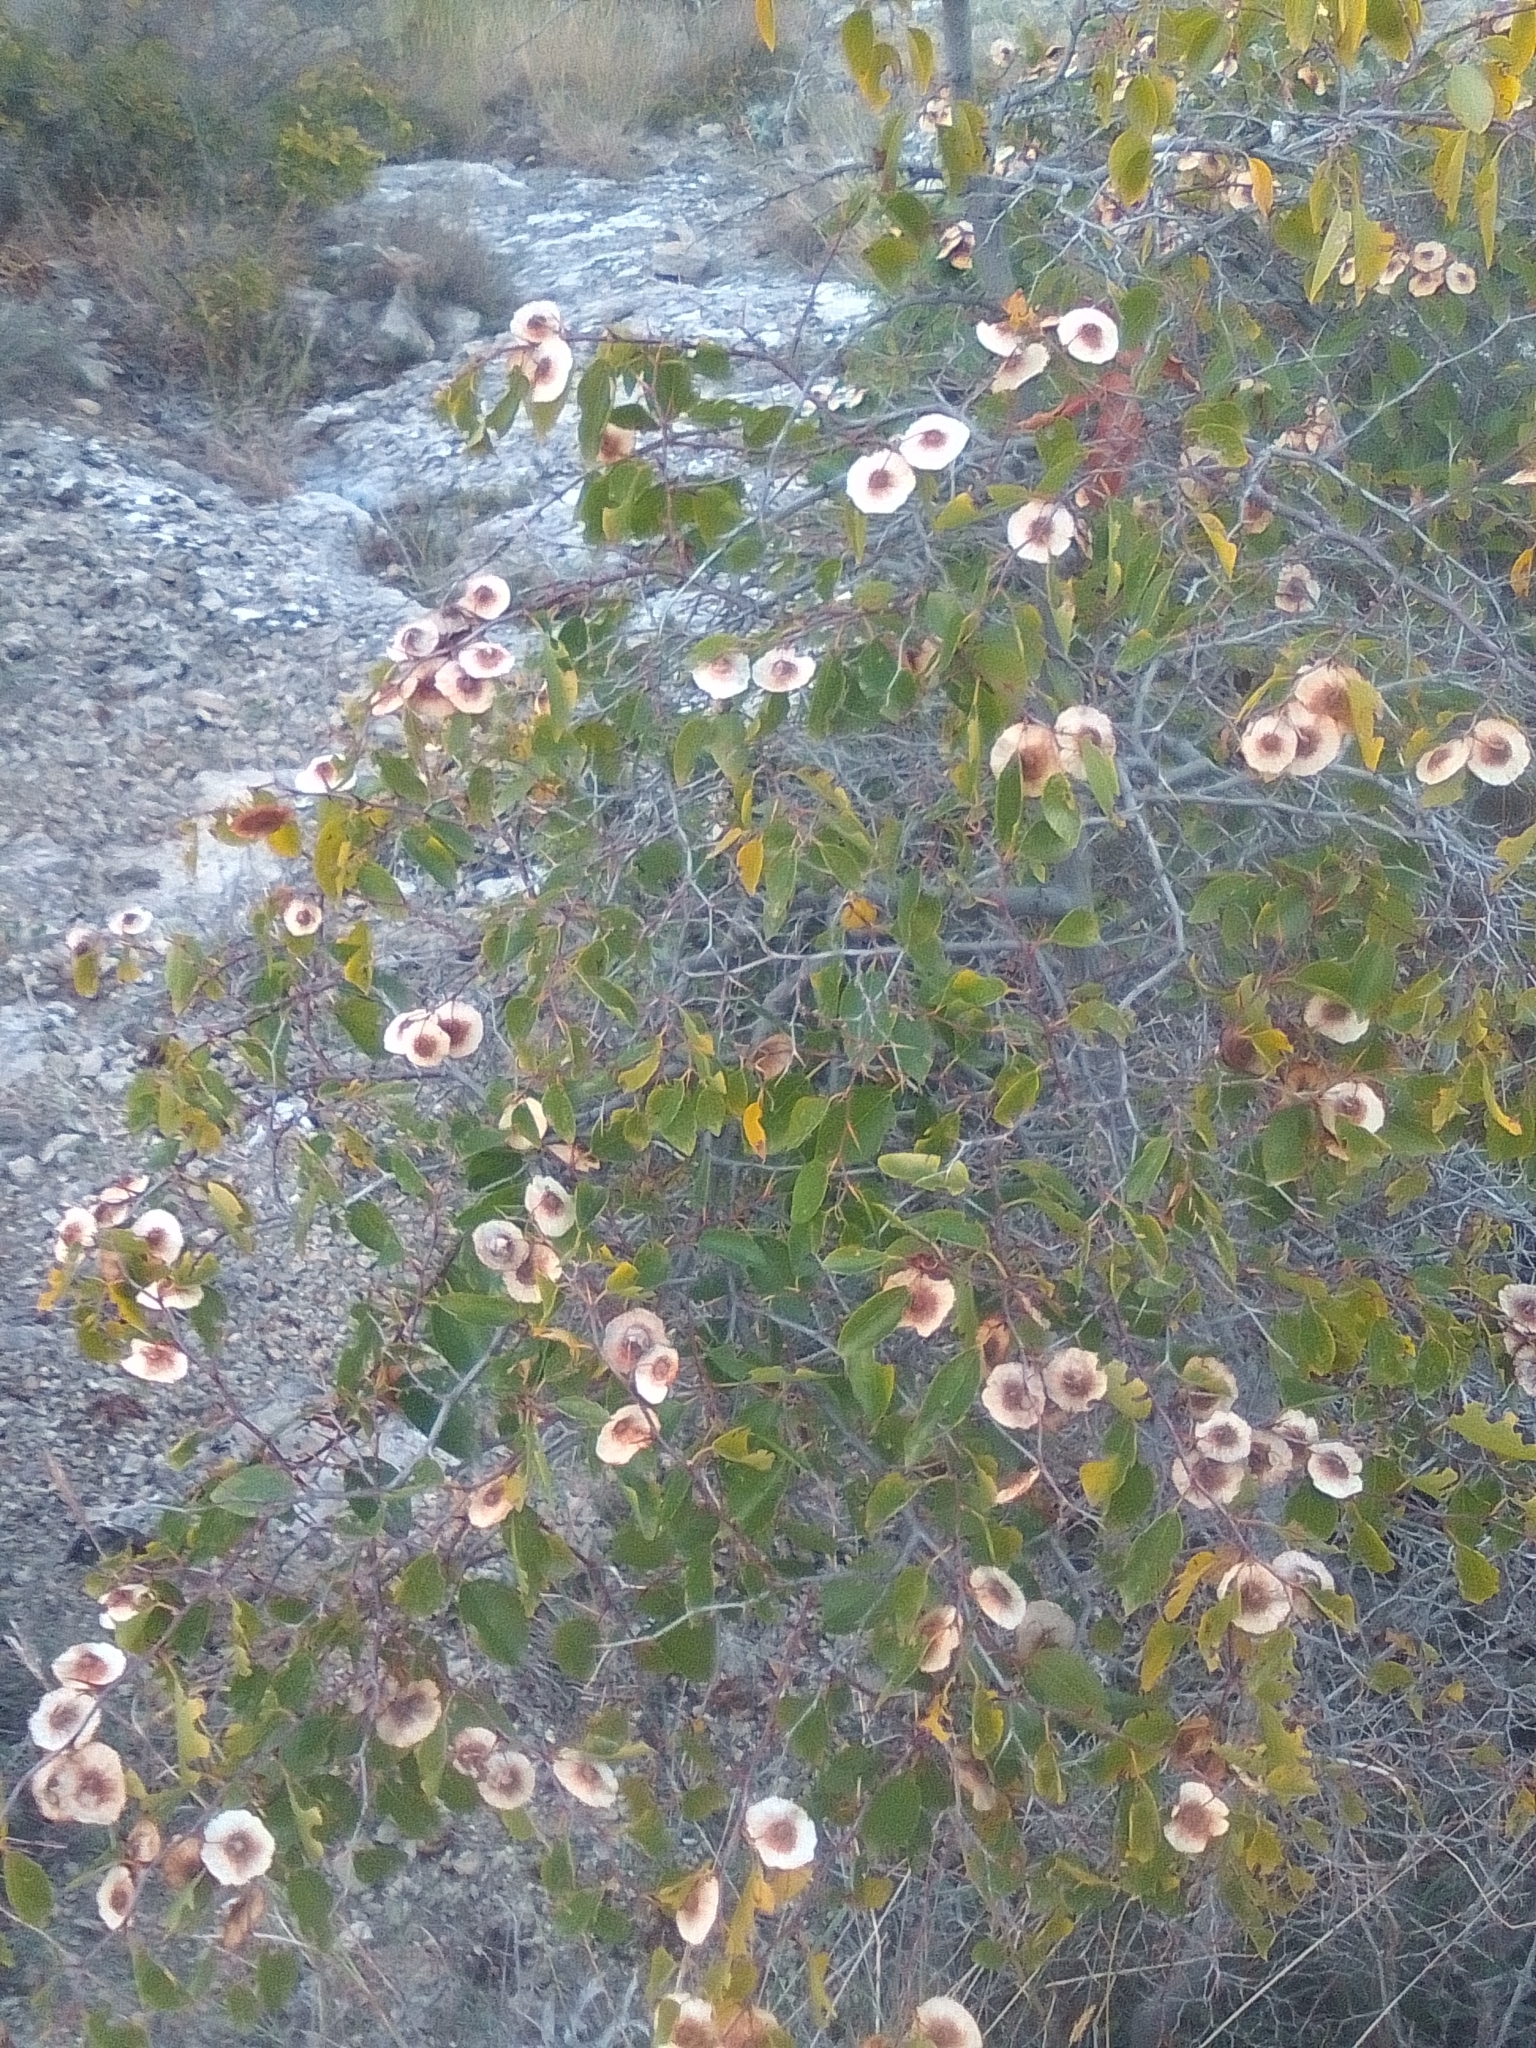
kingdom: Plantae
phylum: Tracheophyta
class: Magnoliopsida
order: Rosales
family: Rhamnaceae
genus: Paliurus
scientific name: Paliurus spina-christi
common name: Jeruselem thorn
